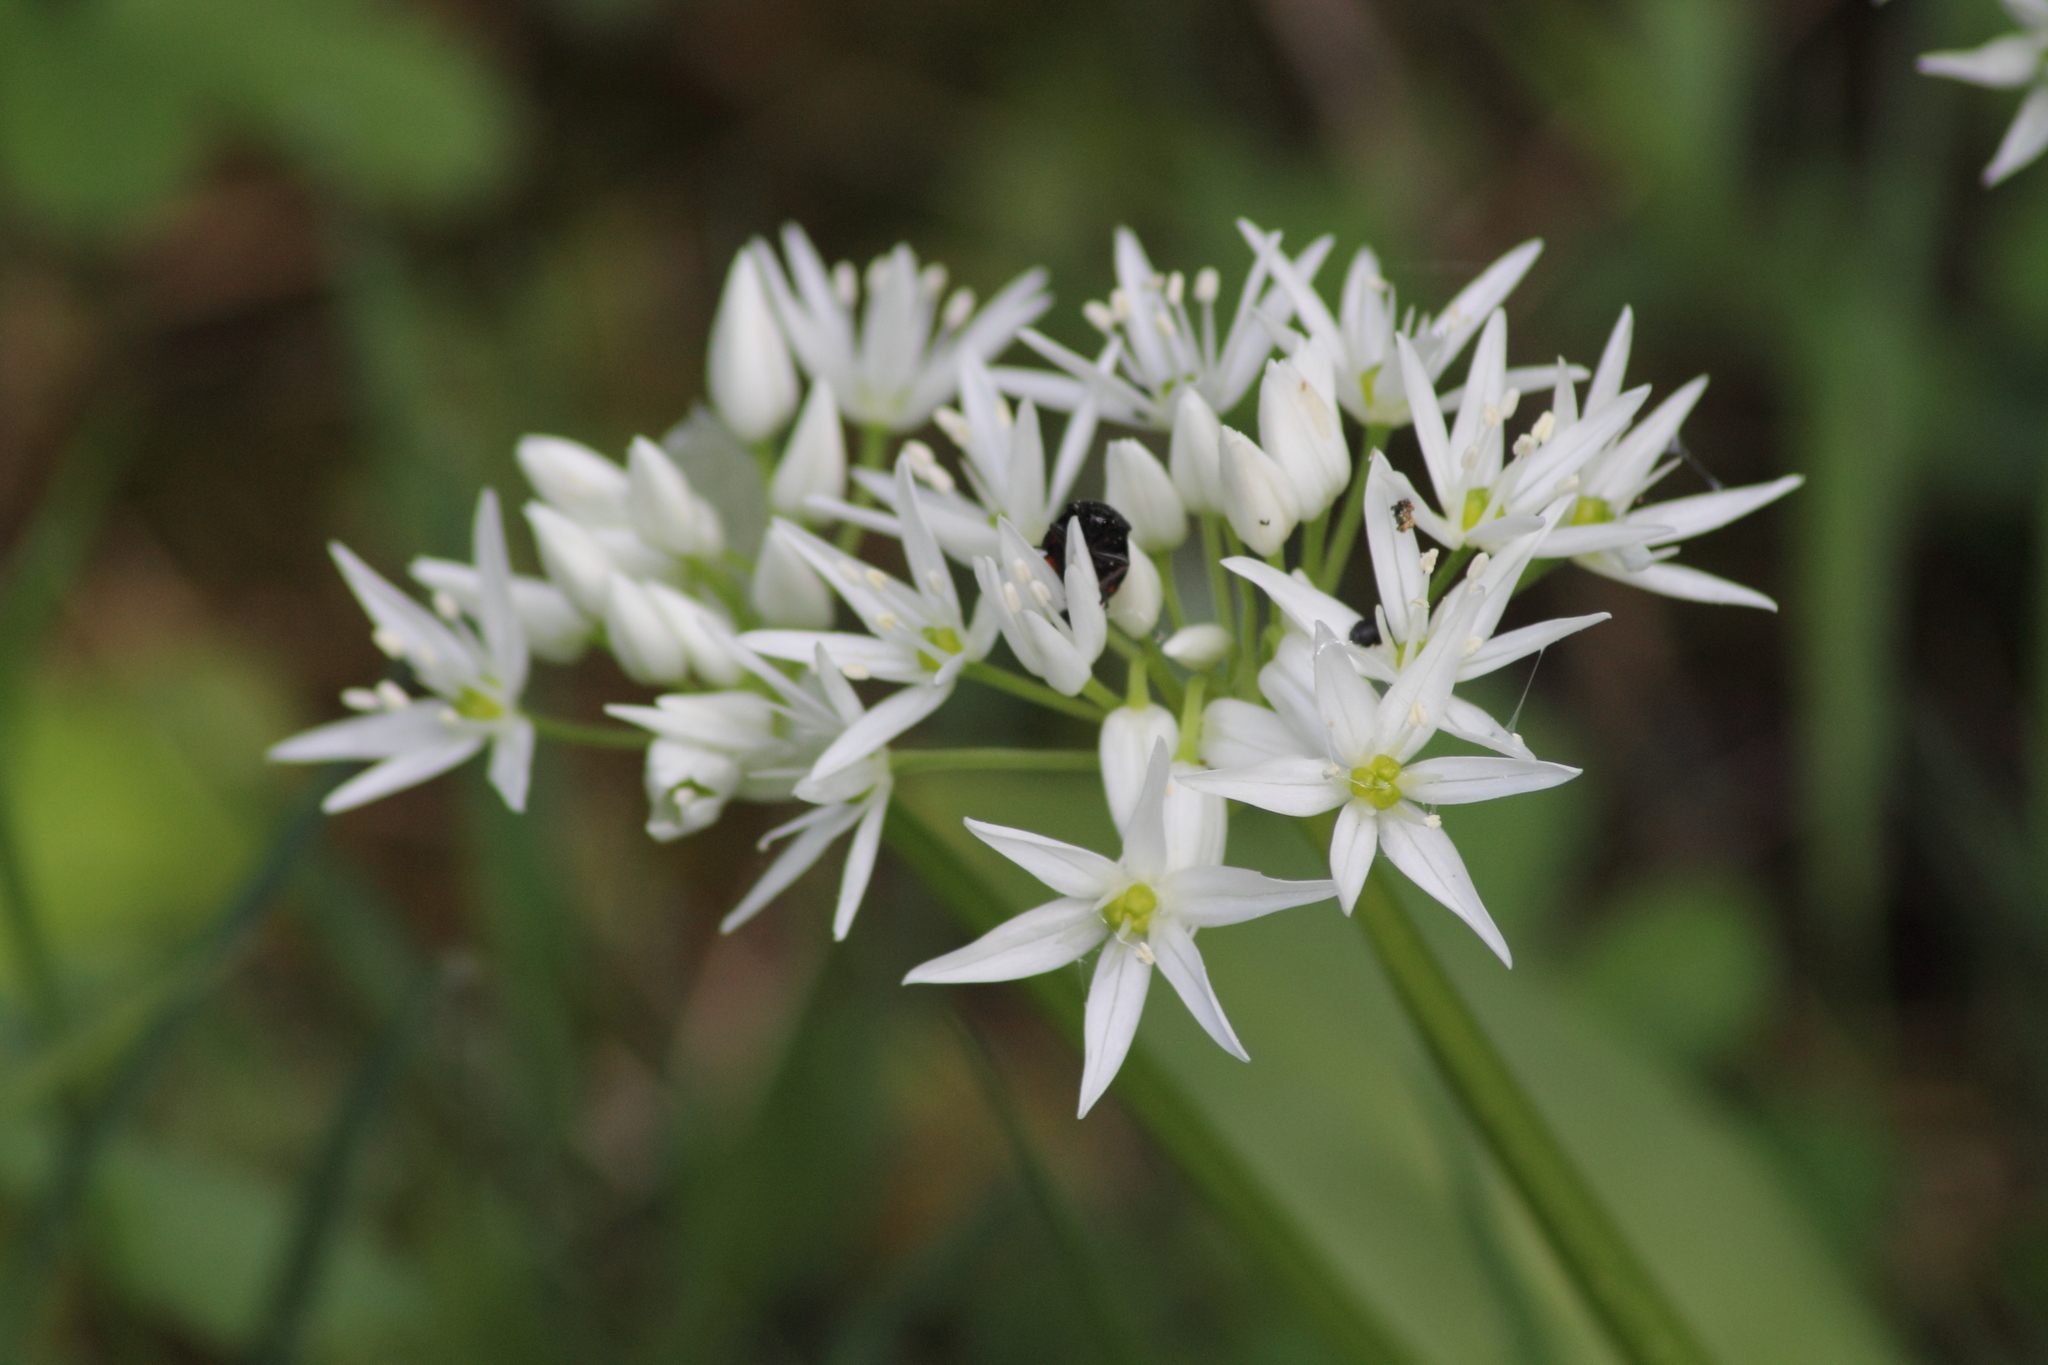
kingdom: Plantae
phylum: Tracheophyta
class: Liliopsida
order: Asparagales
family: Amaryllidaceae
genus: Allium
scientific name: Allium ursinum
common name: Ramsons
